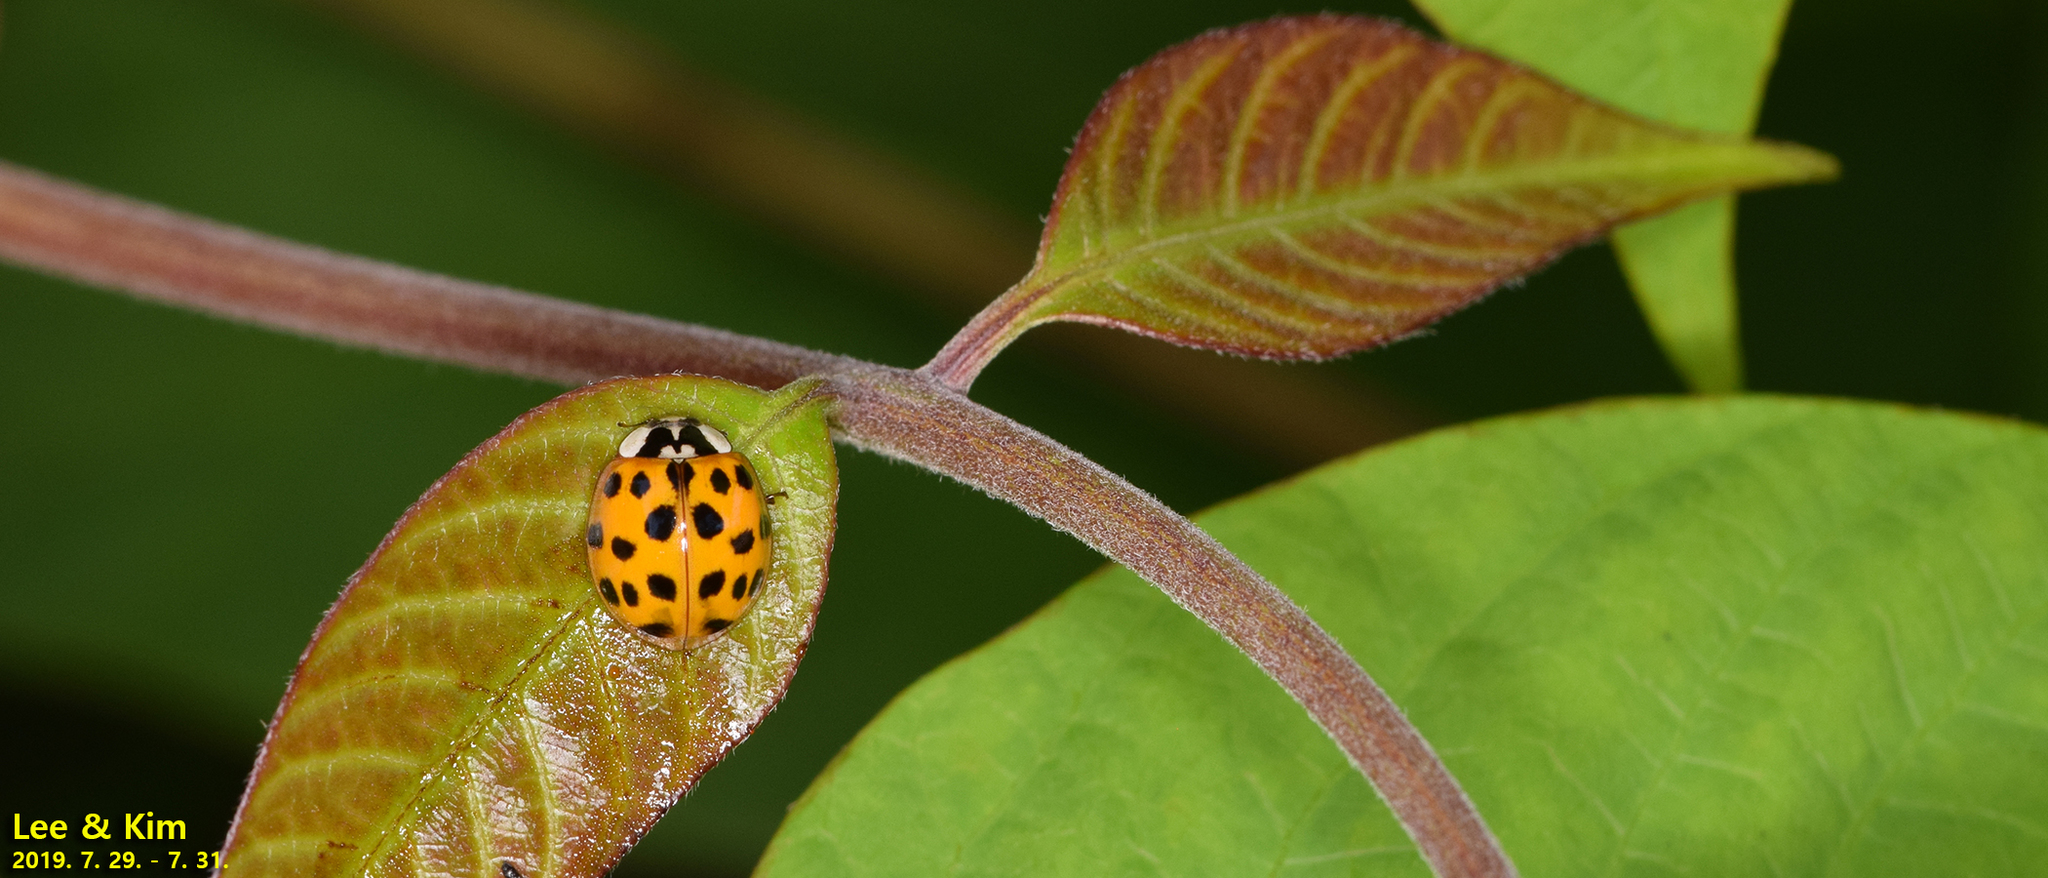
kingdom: Animalia
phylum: Arthropoda
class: Insecta
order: Coleoptera
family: Coccinellidae
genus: Harmonia
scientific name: Harmonia axyridis
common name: Harlequin ladybird
